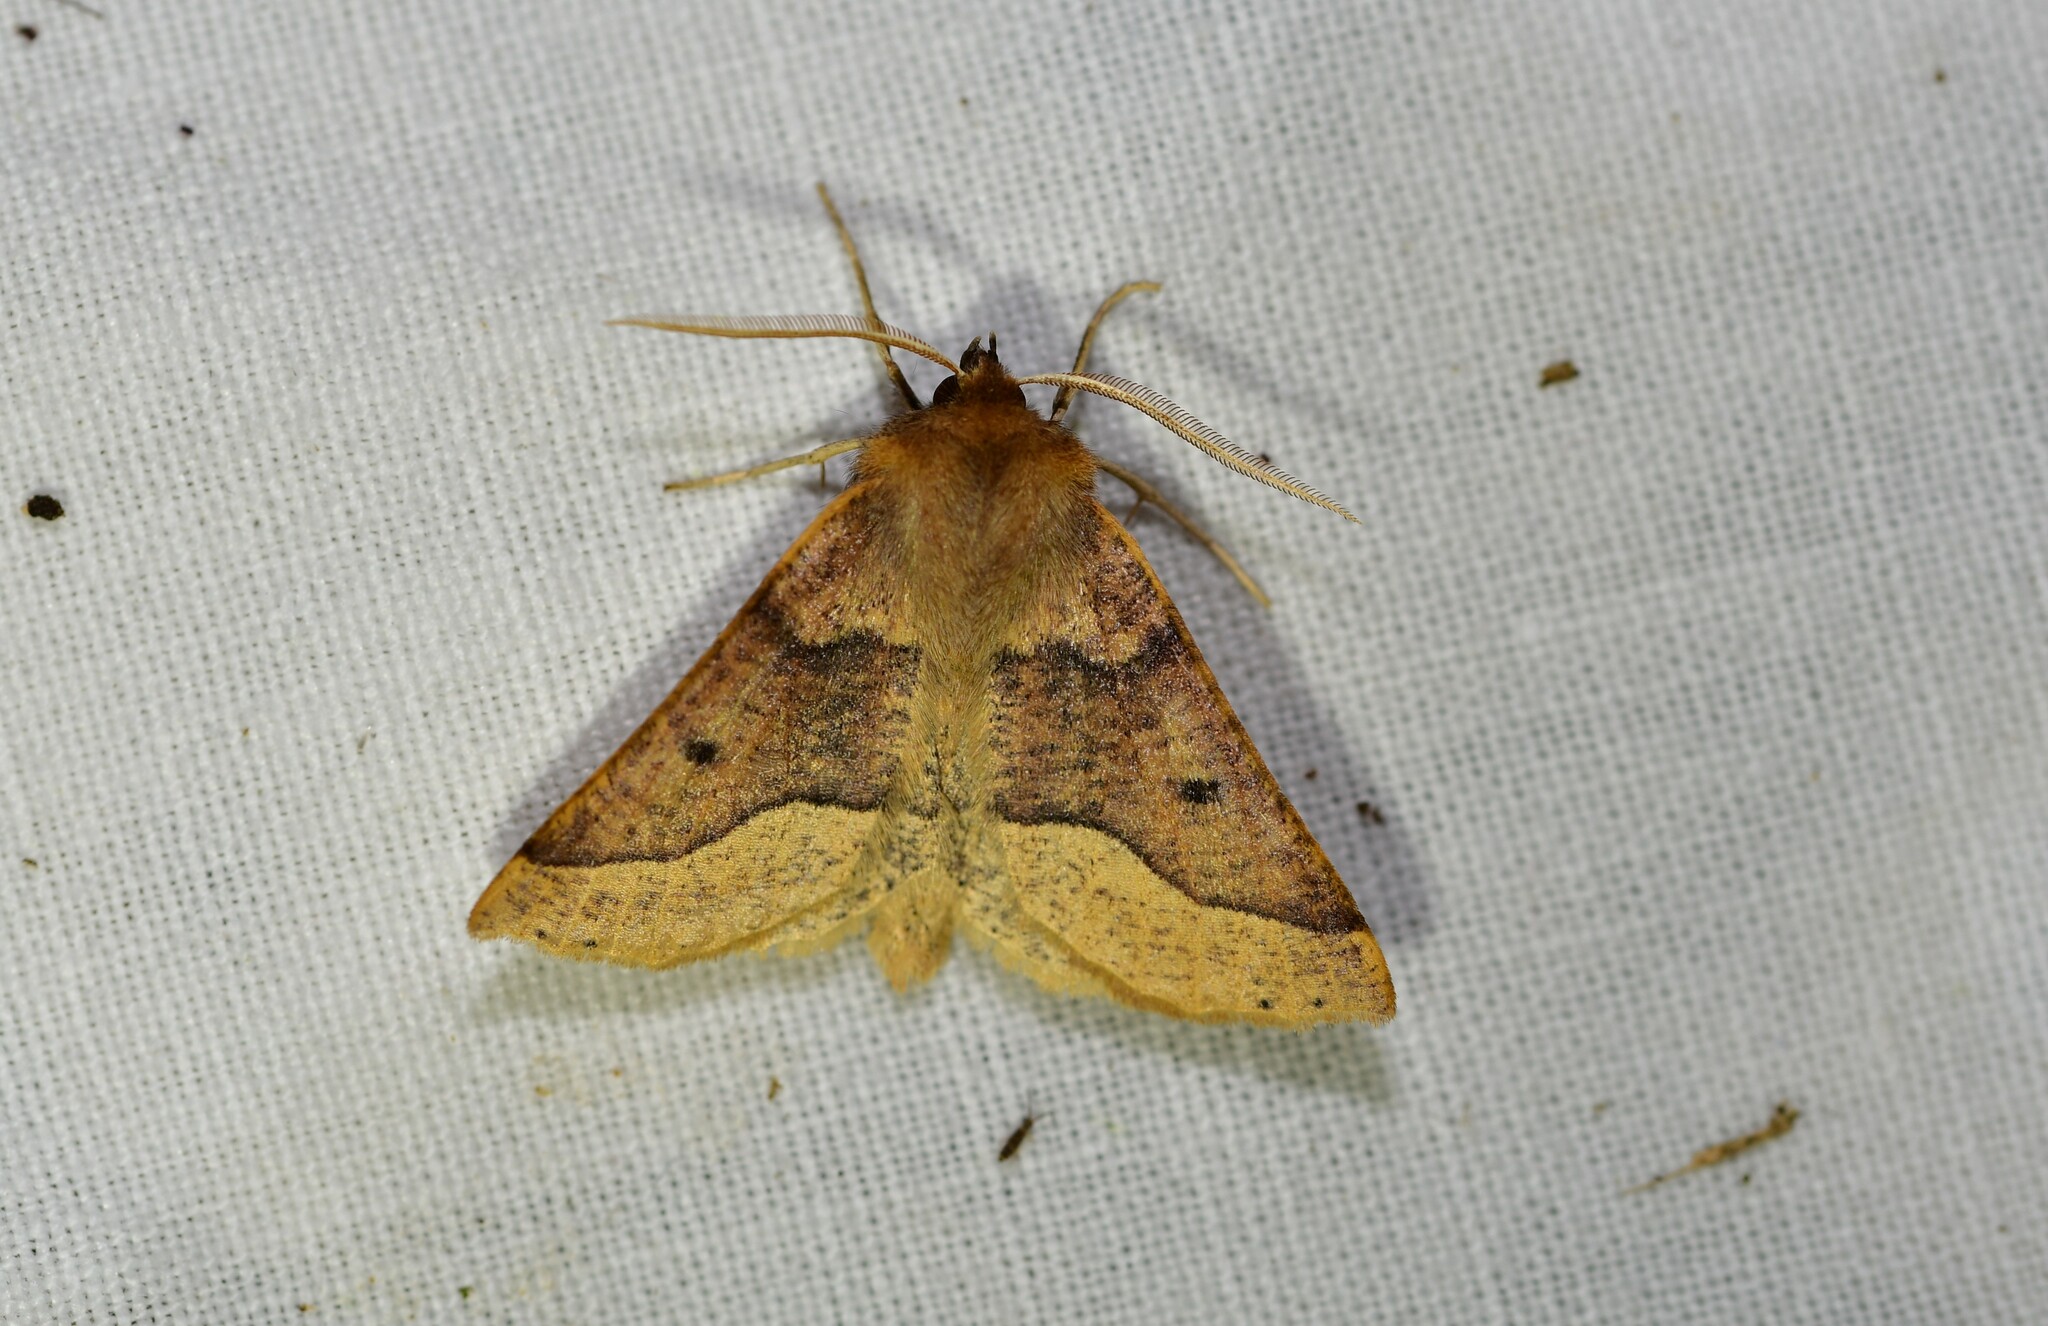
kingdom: Animalia
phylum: Arthropoda
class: Insecta
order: Lepidoptera
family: Geometridae
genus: Crocallis
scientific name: Crocallis tusciaria
